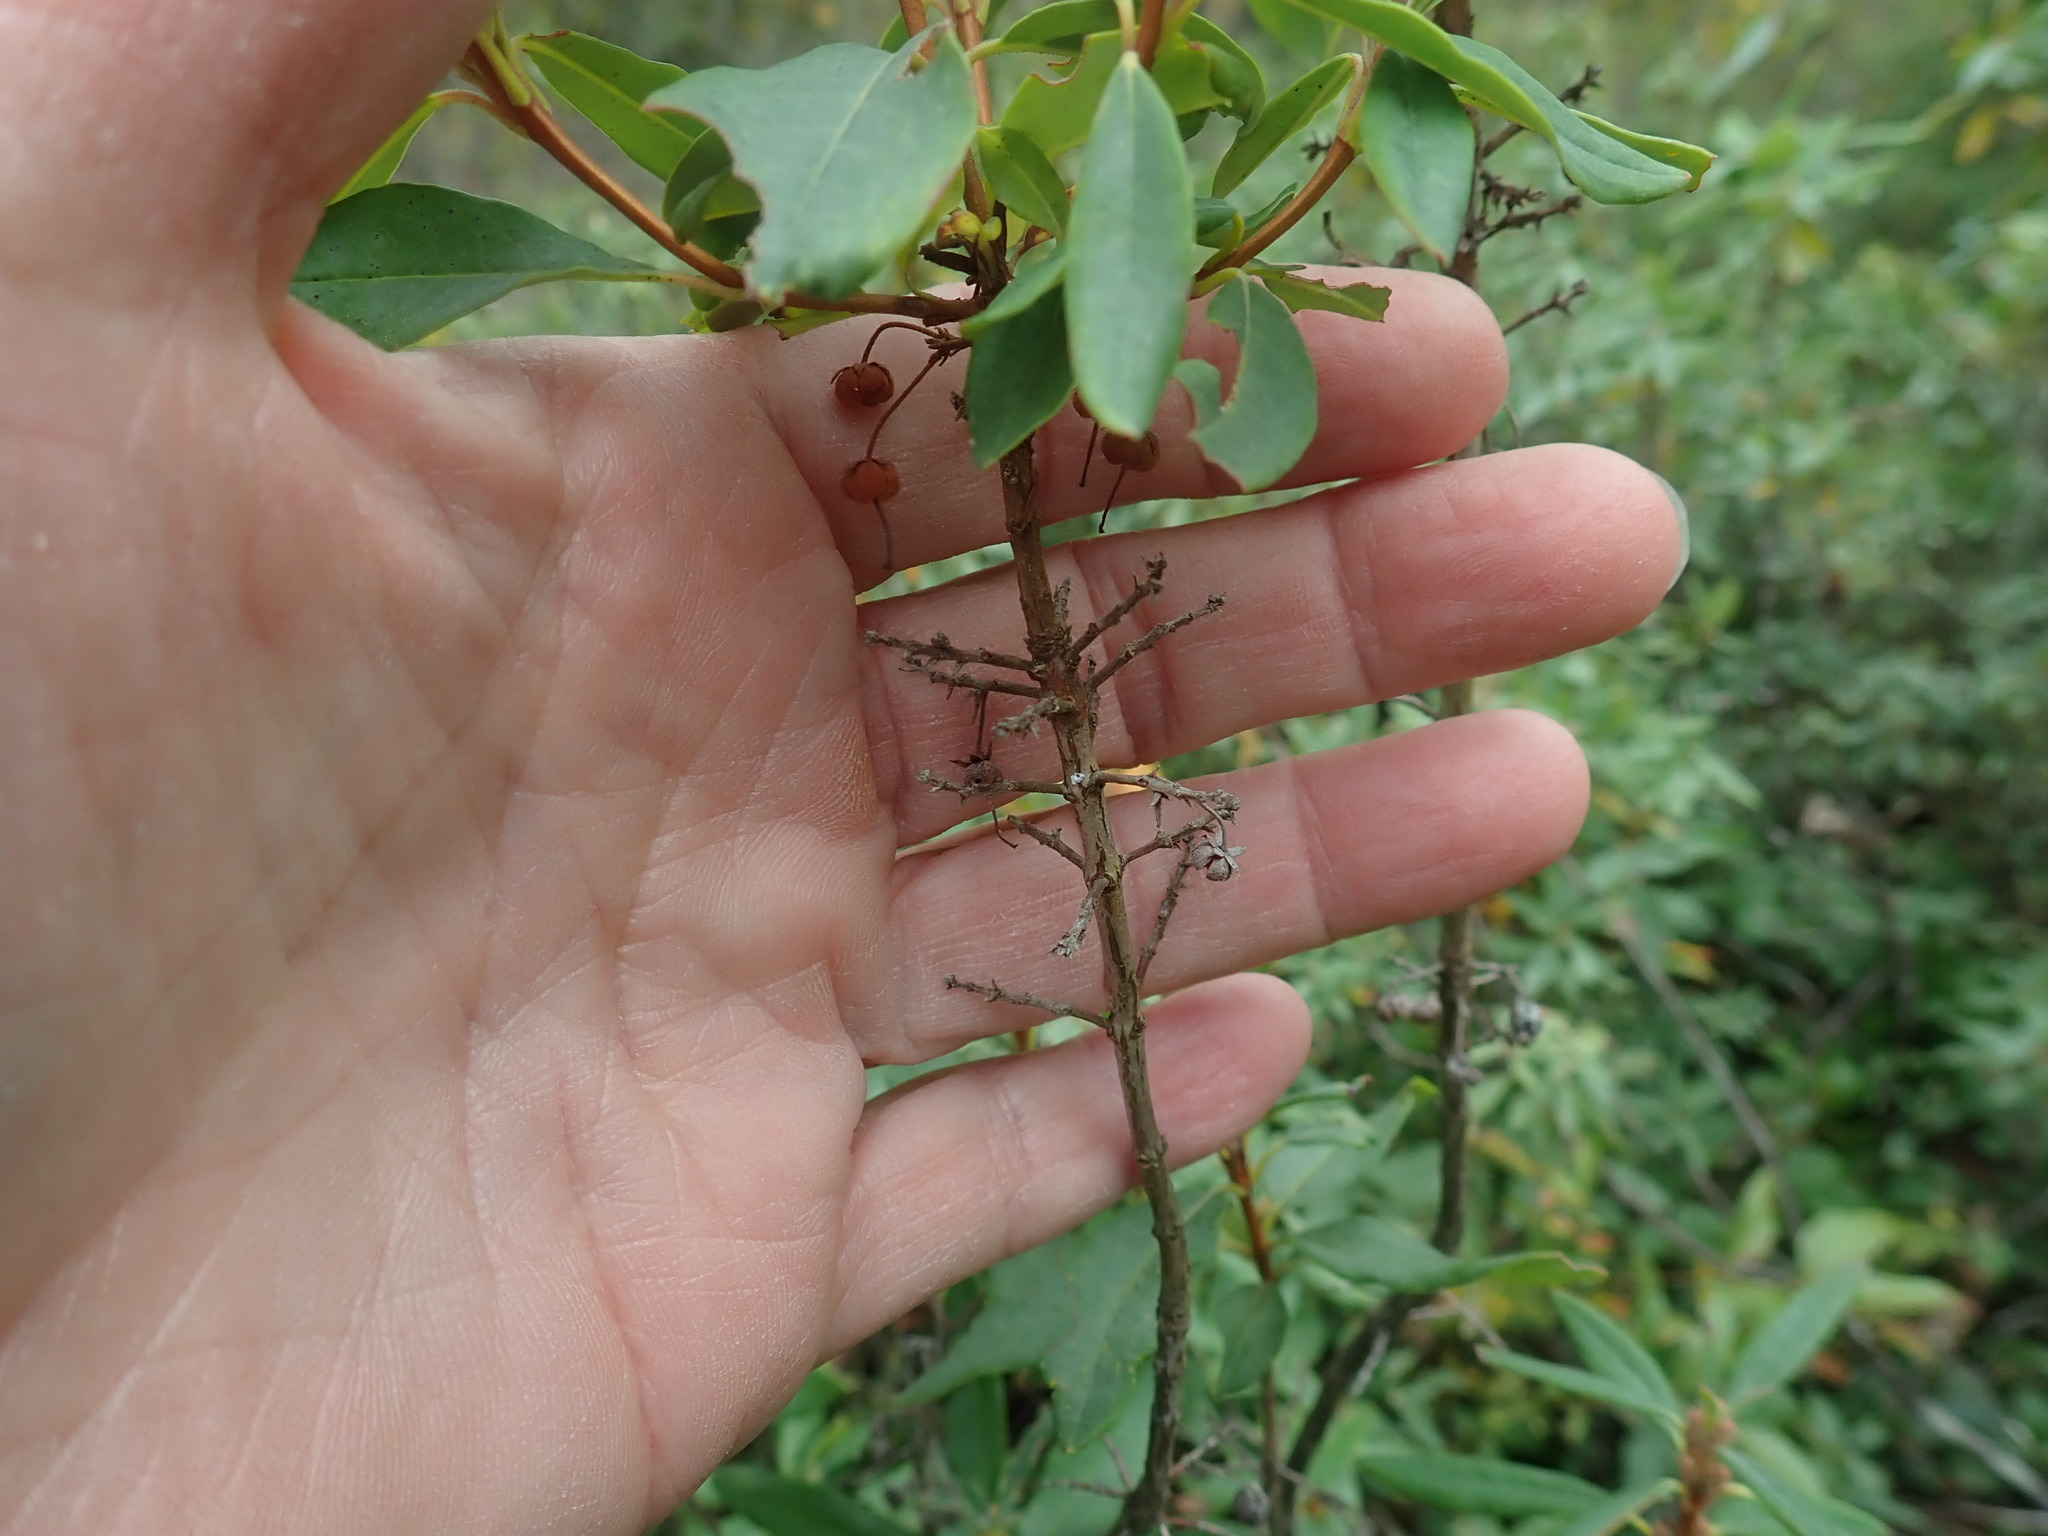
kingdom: Plantae
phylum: Tracheophyta
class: Magnoliopsida
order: Ericales
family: Ericaceae
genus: Kalmia
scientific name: Kalmia angustifolia
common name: Sheep-laurel
